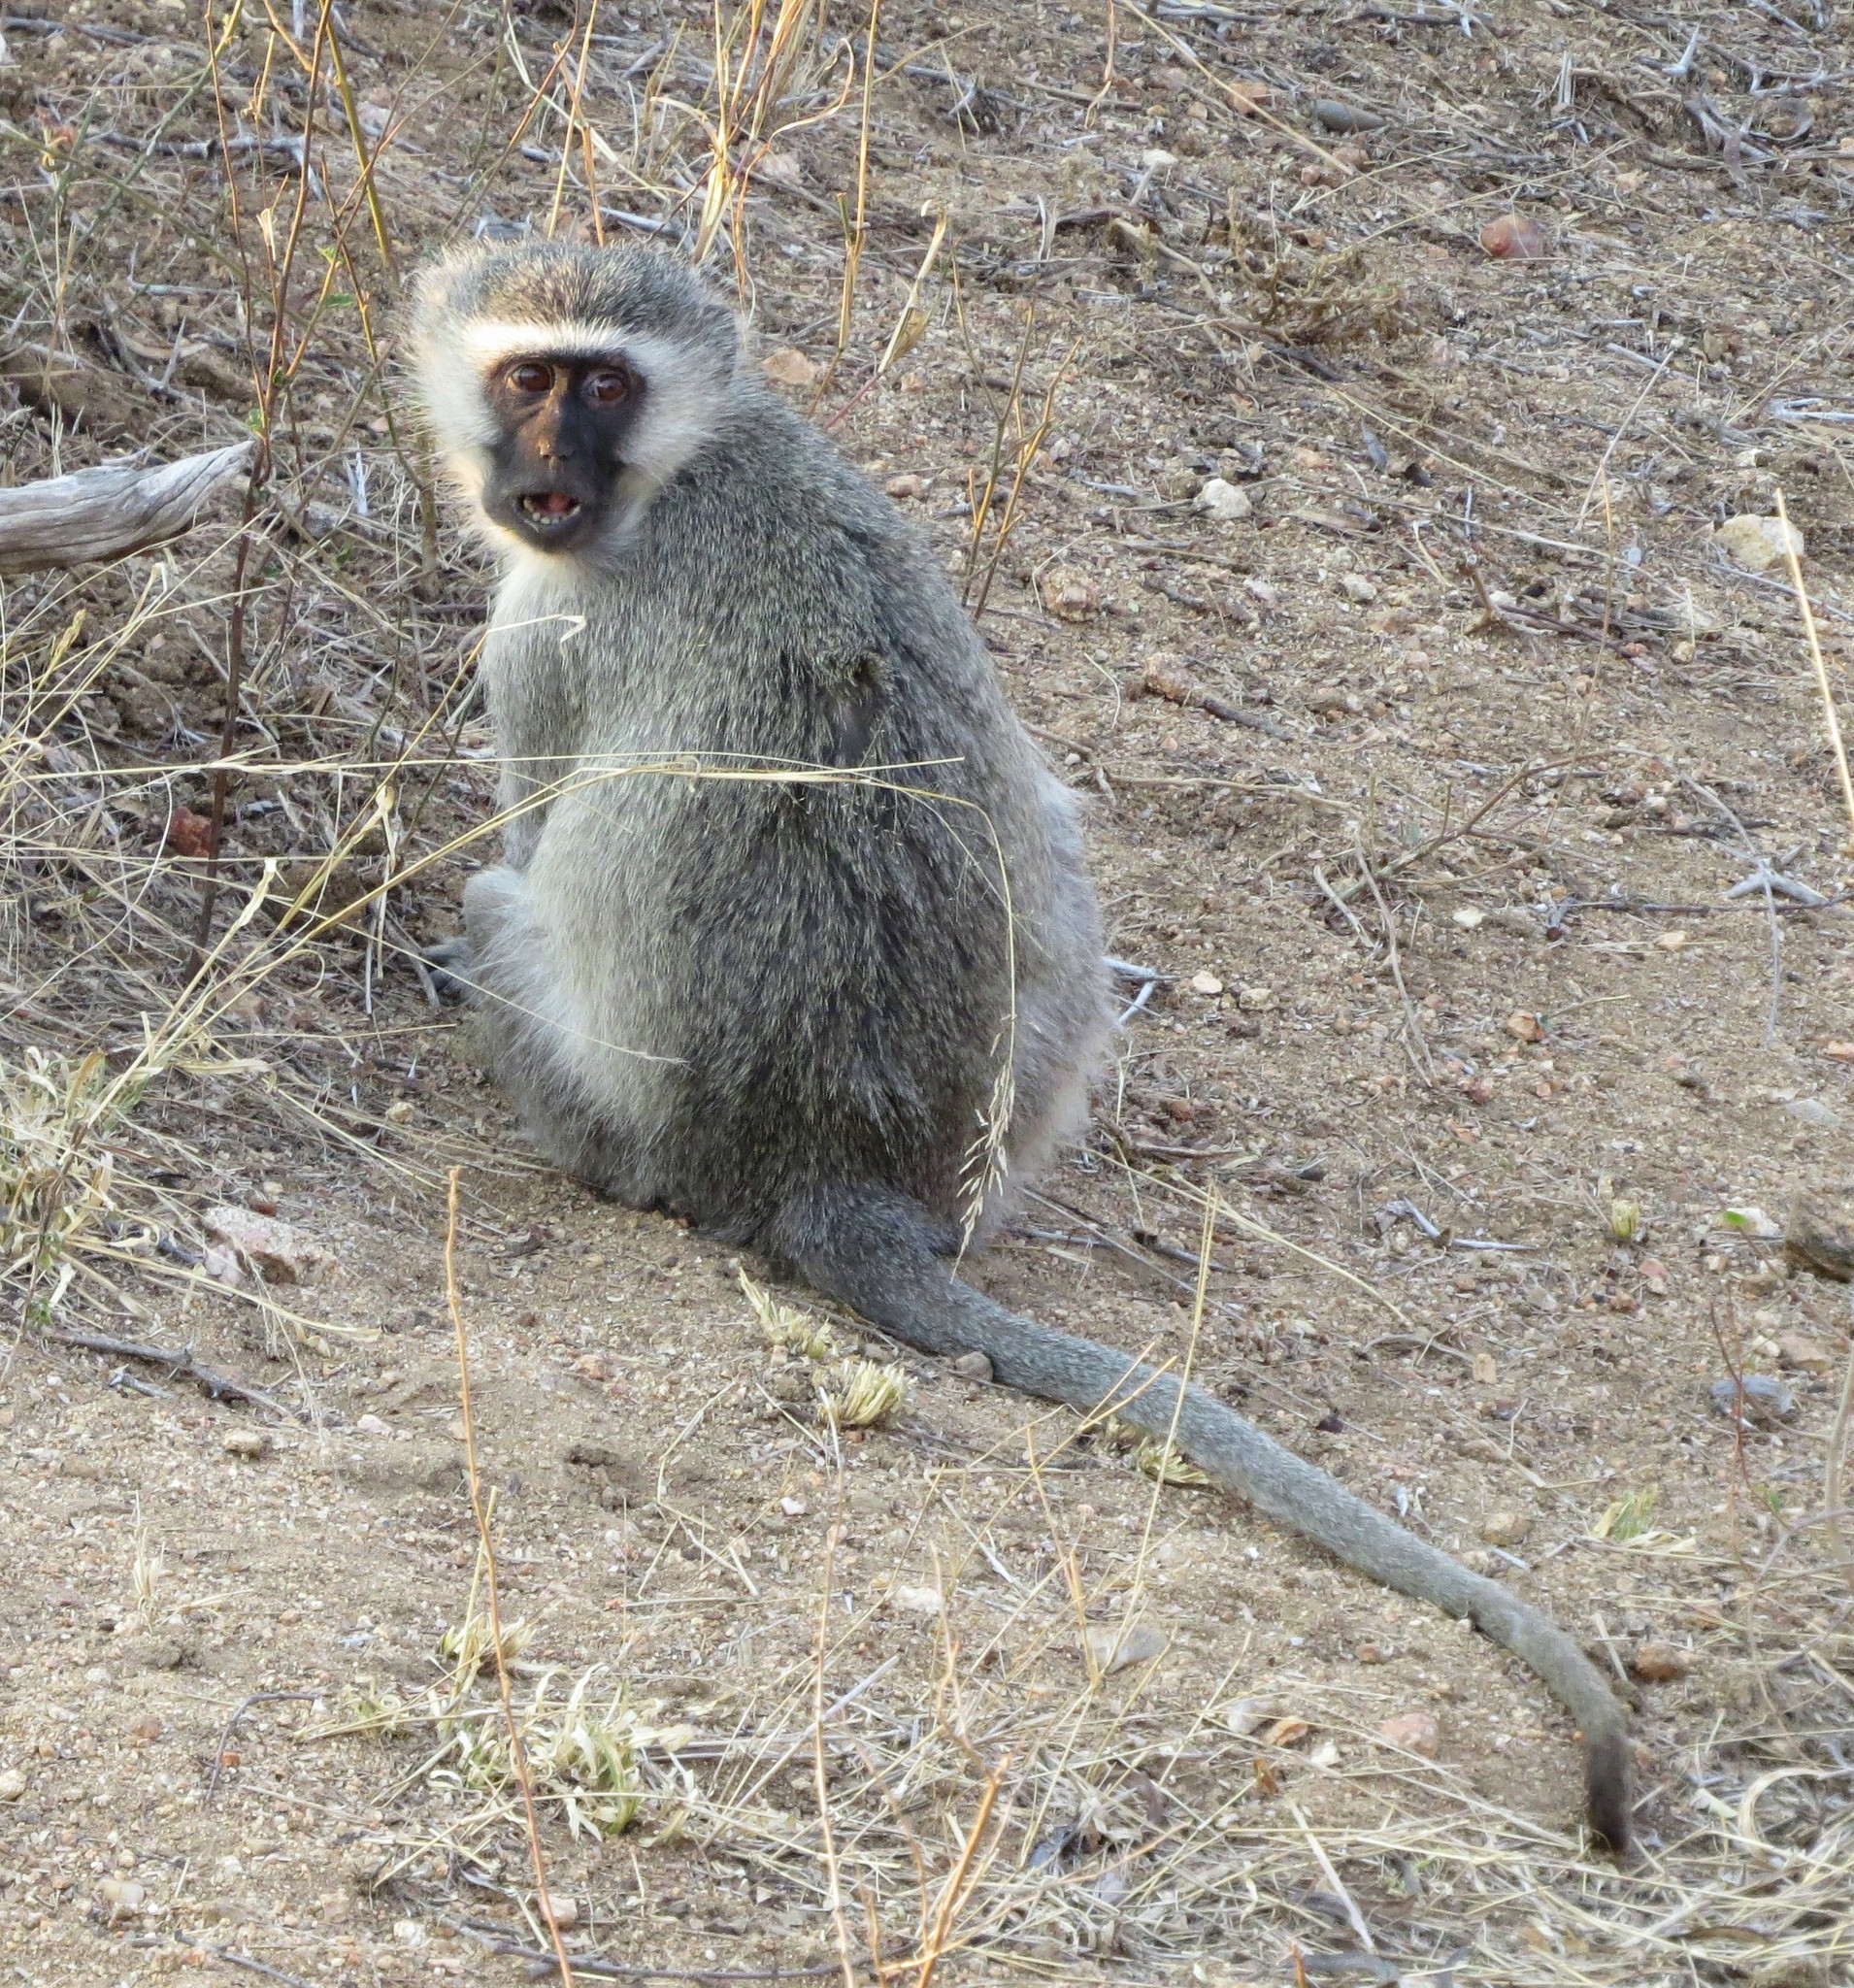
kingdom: Animalia
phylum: Chordata
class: Mammalia
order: Primates
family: Cercopithecidae
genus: Chlorocebus
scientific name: Chlorocebus pygerythrus
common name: Vervet monkey
